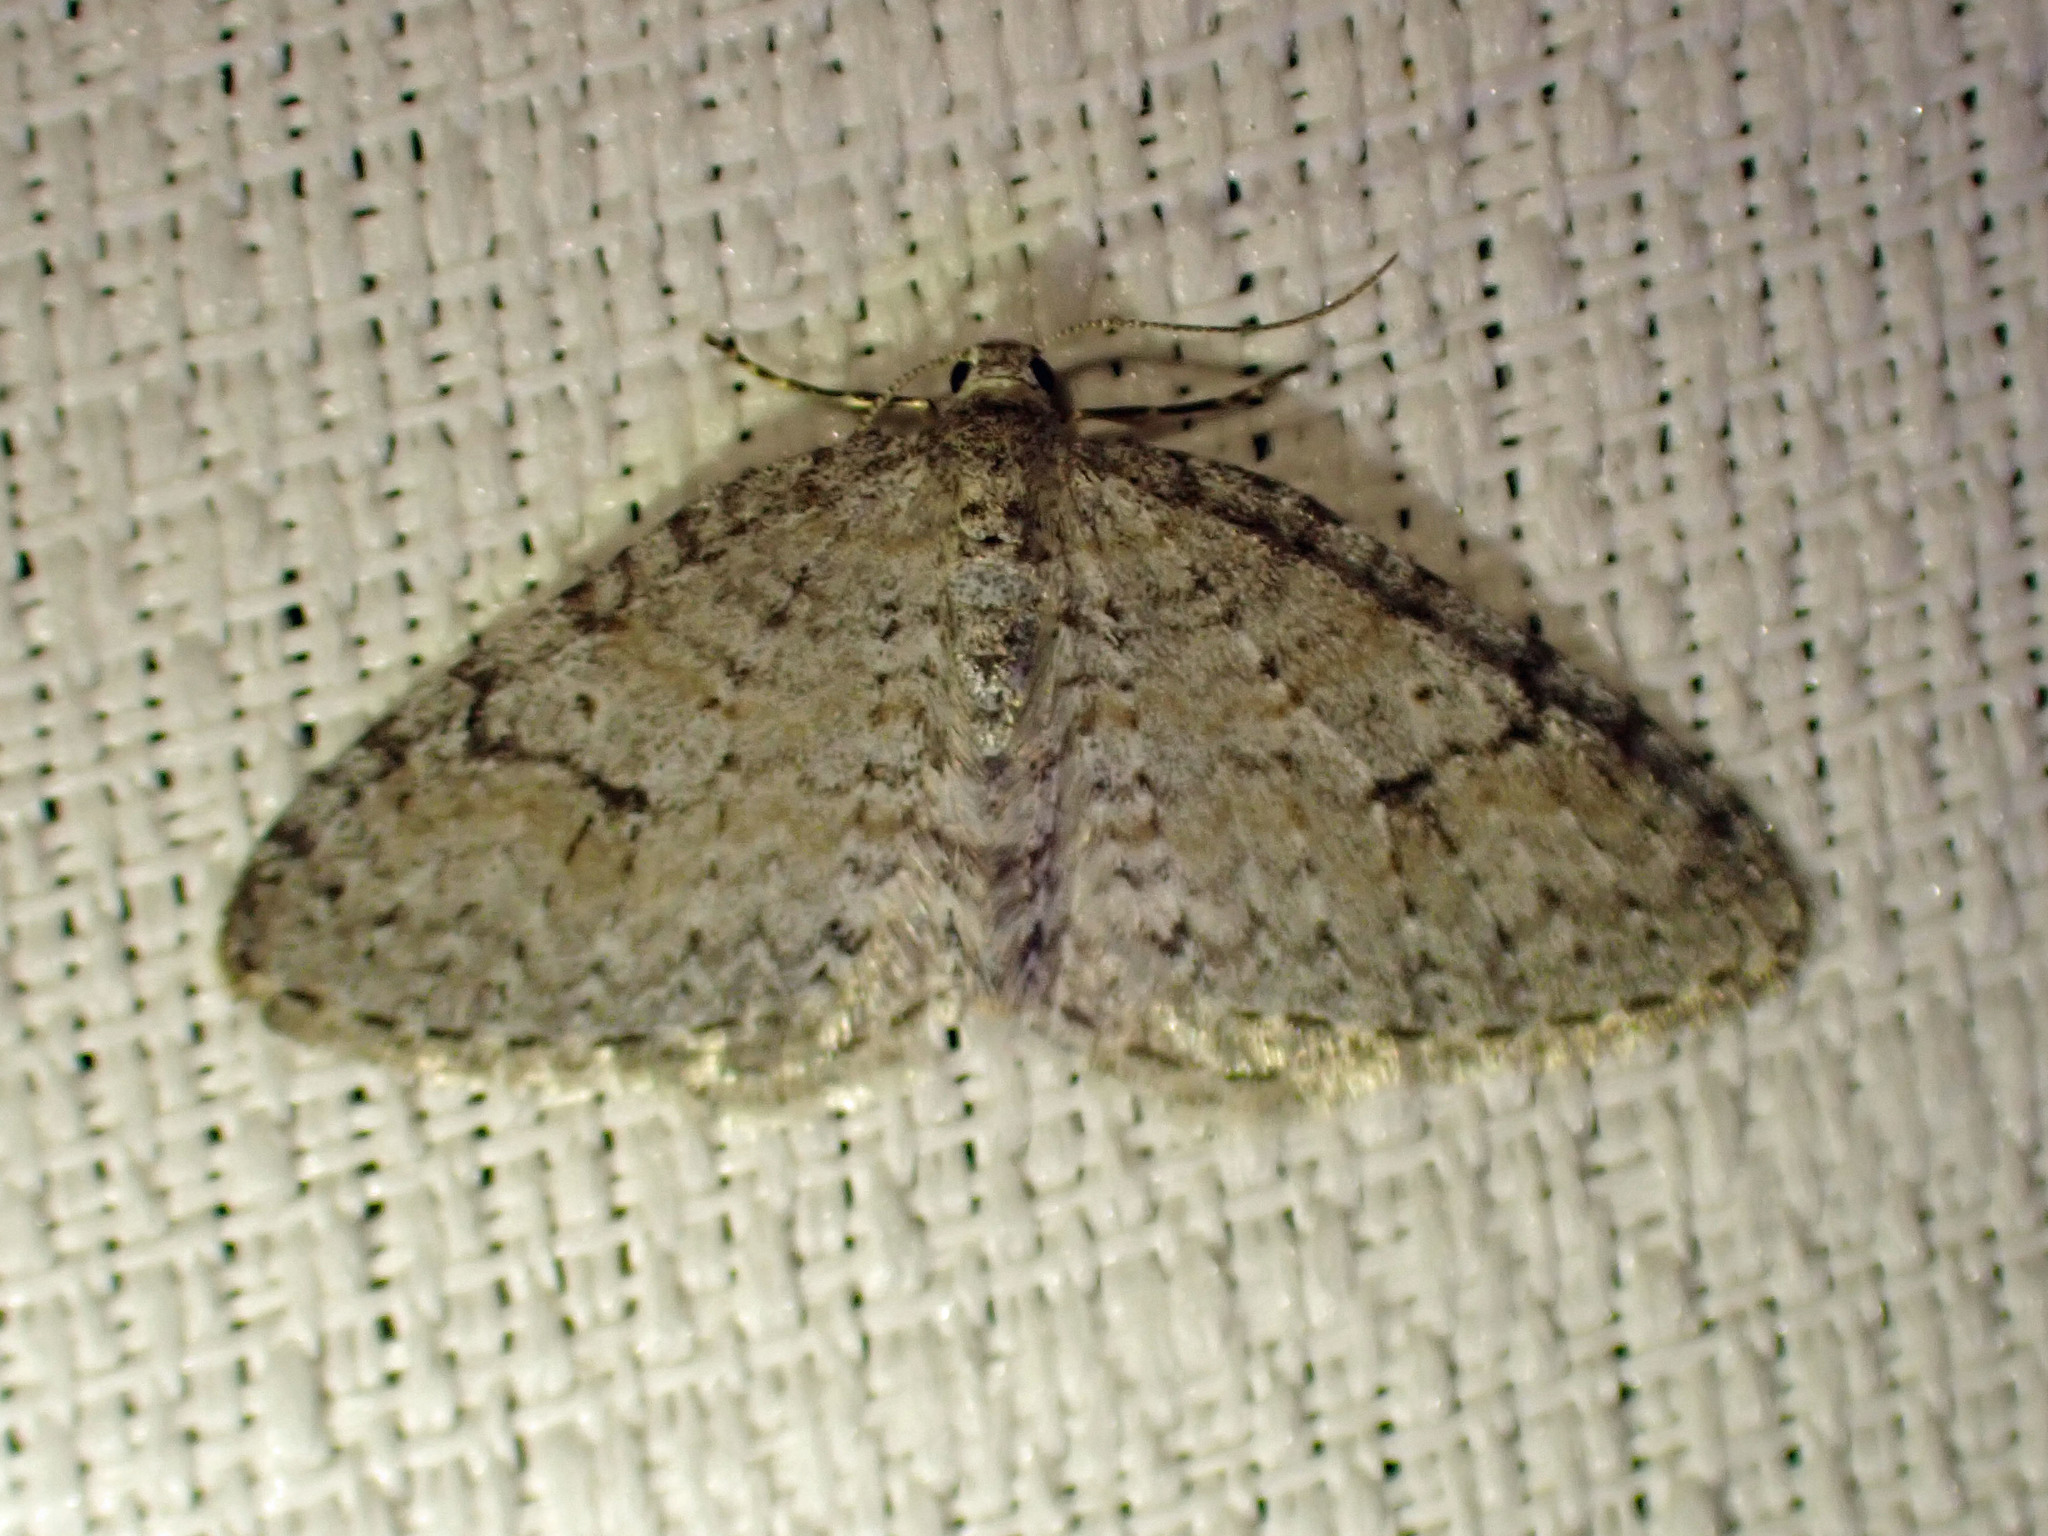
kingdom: Animalia
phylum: Arthropoda
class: Insecta
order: Lepidoptera
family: Geometridae
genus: Venusia
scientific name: Venusia comptaria
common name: Brown-shaded carpet
